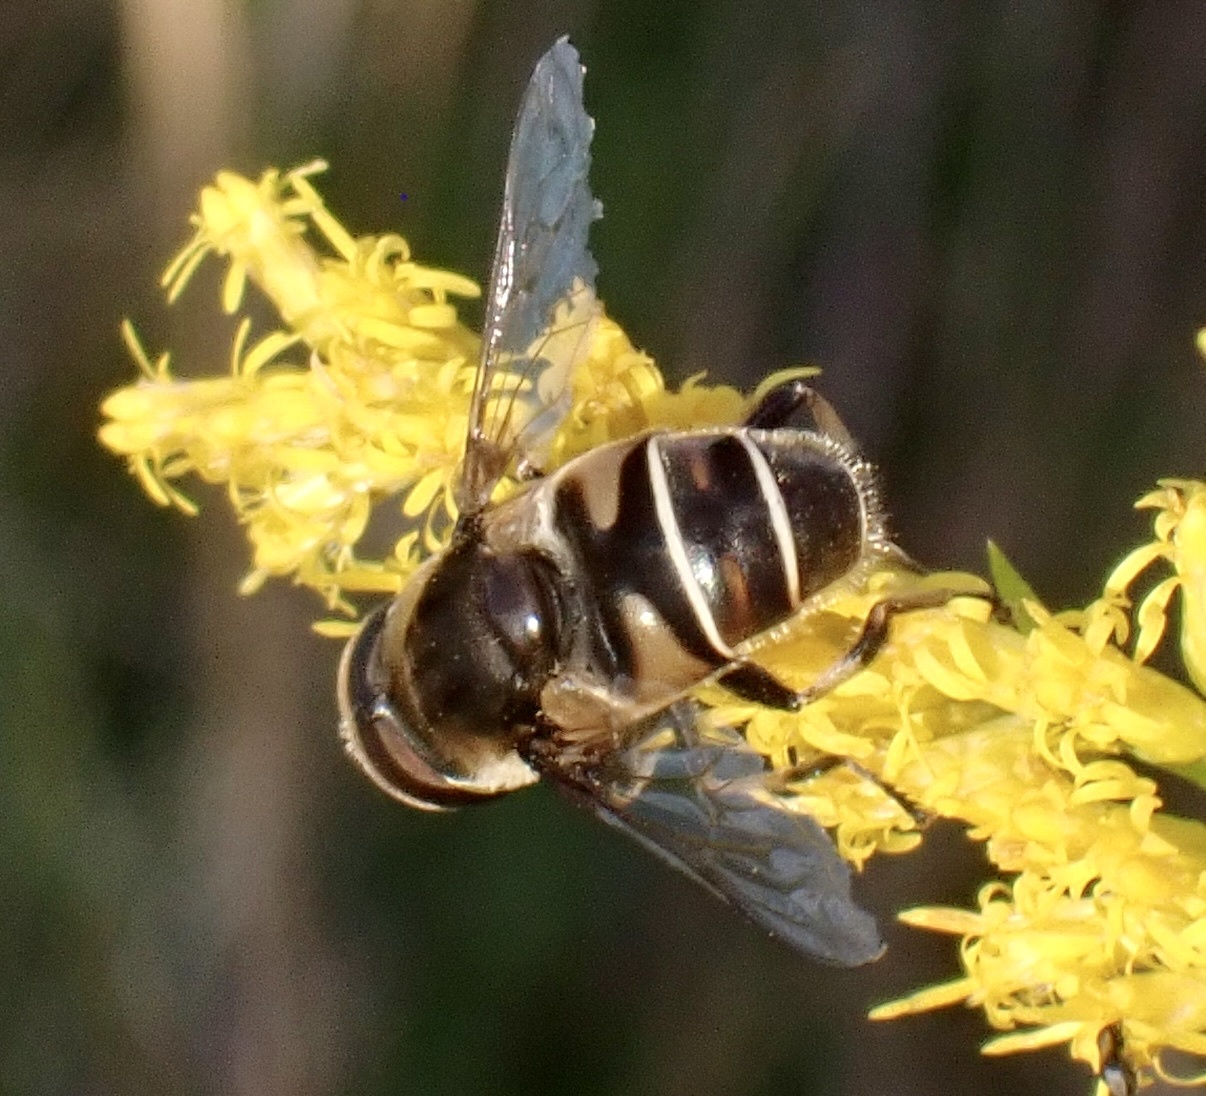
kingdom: Animalia
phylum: Arthropoda
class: Insecta
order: Diptera
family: Syrphidae
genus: Eristalis
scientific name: Eristalis dimidiata
